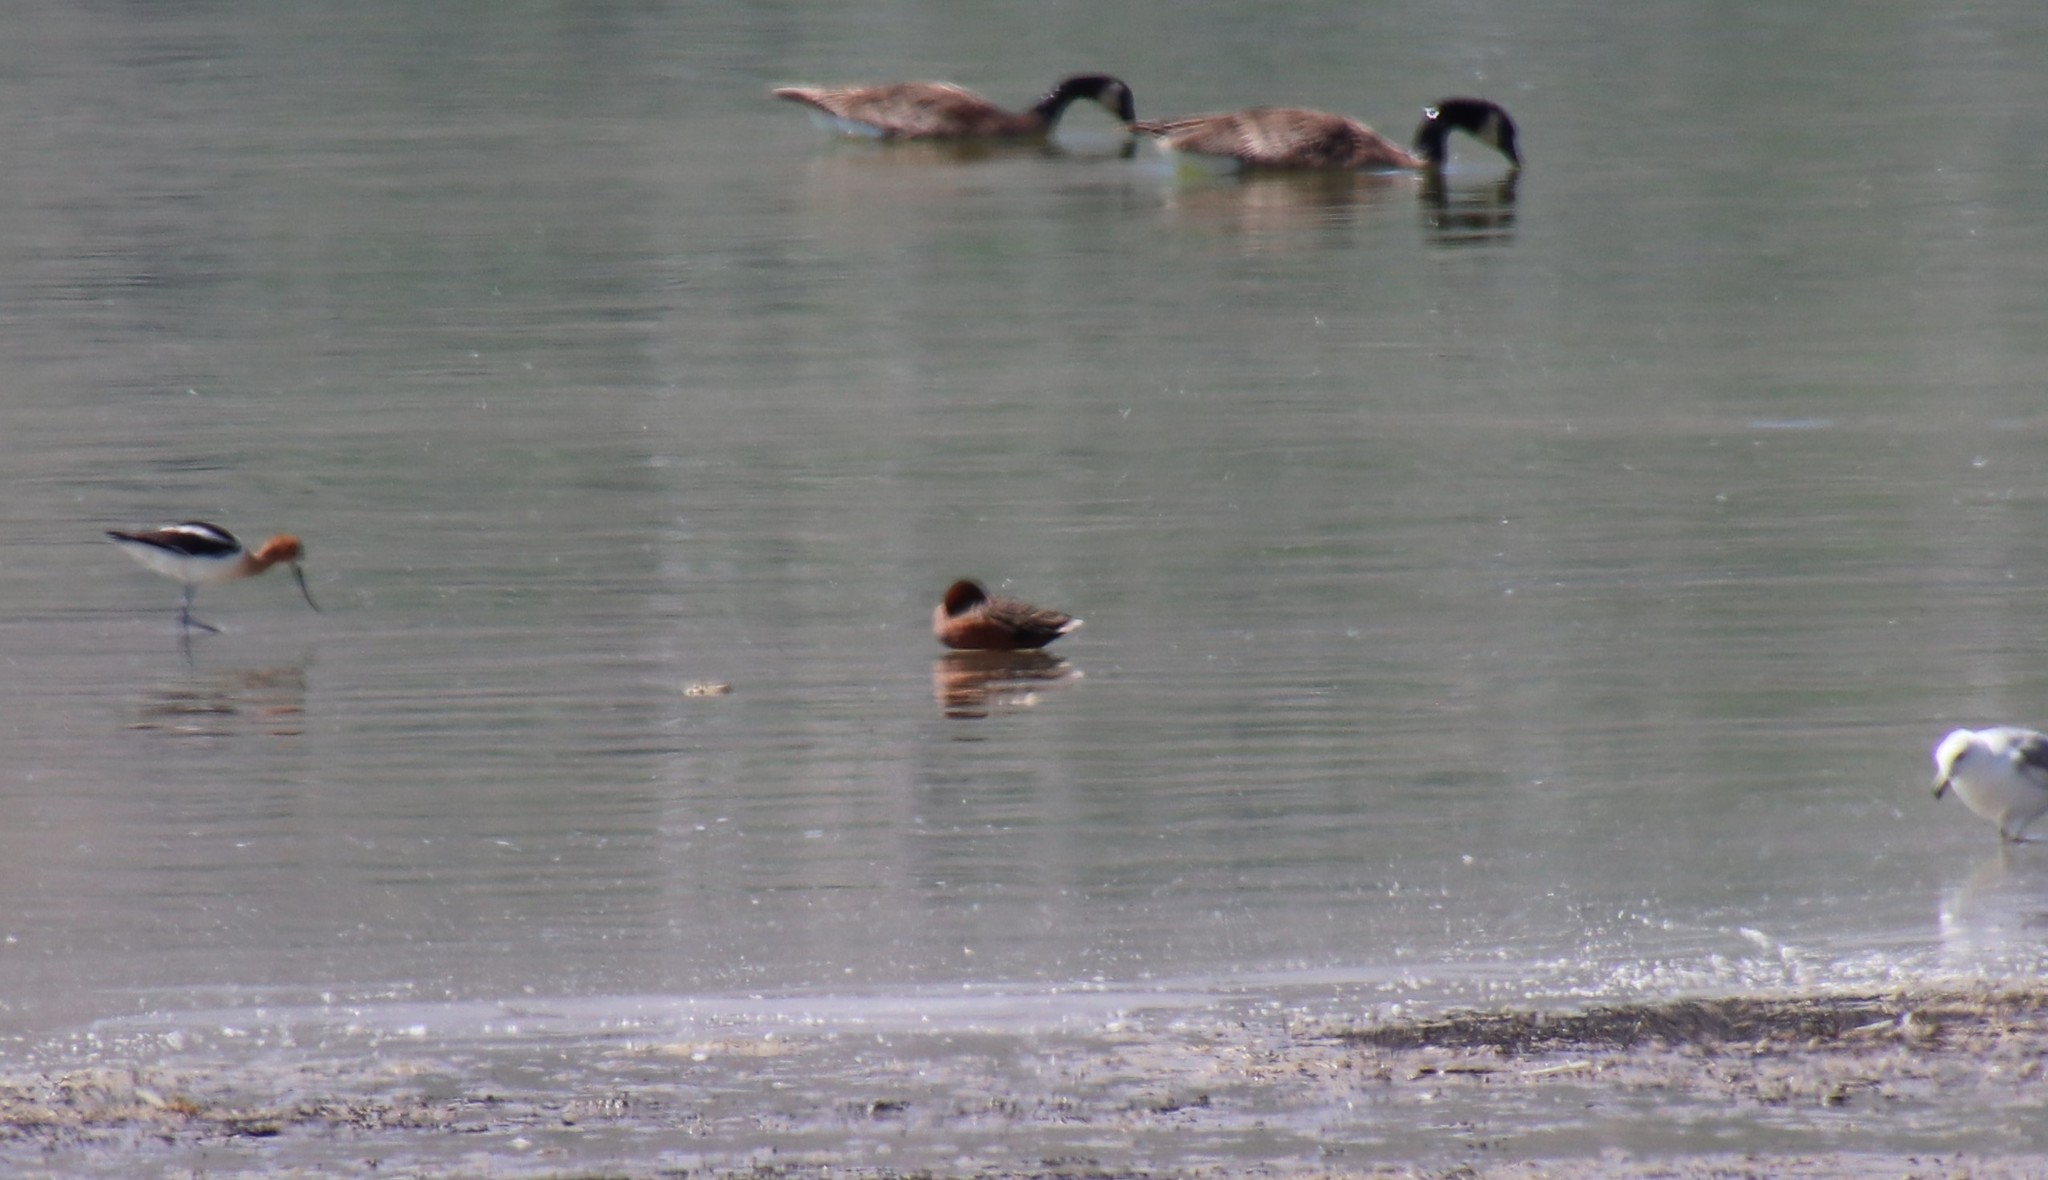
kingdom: Animalia
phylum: Chordata
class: Aves
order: Anseriformes
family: Anatidae
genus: Spatula
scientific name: Spatula cyanoptera
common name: Cinnamon teal
